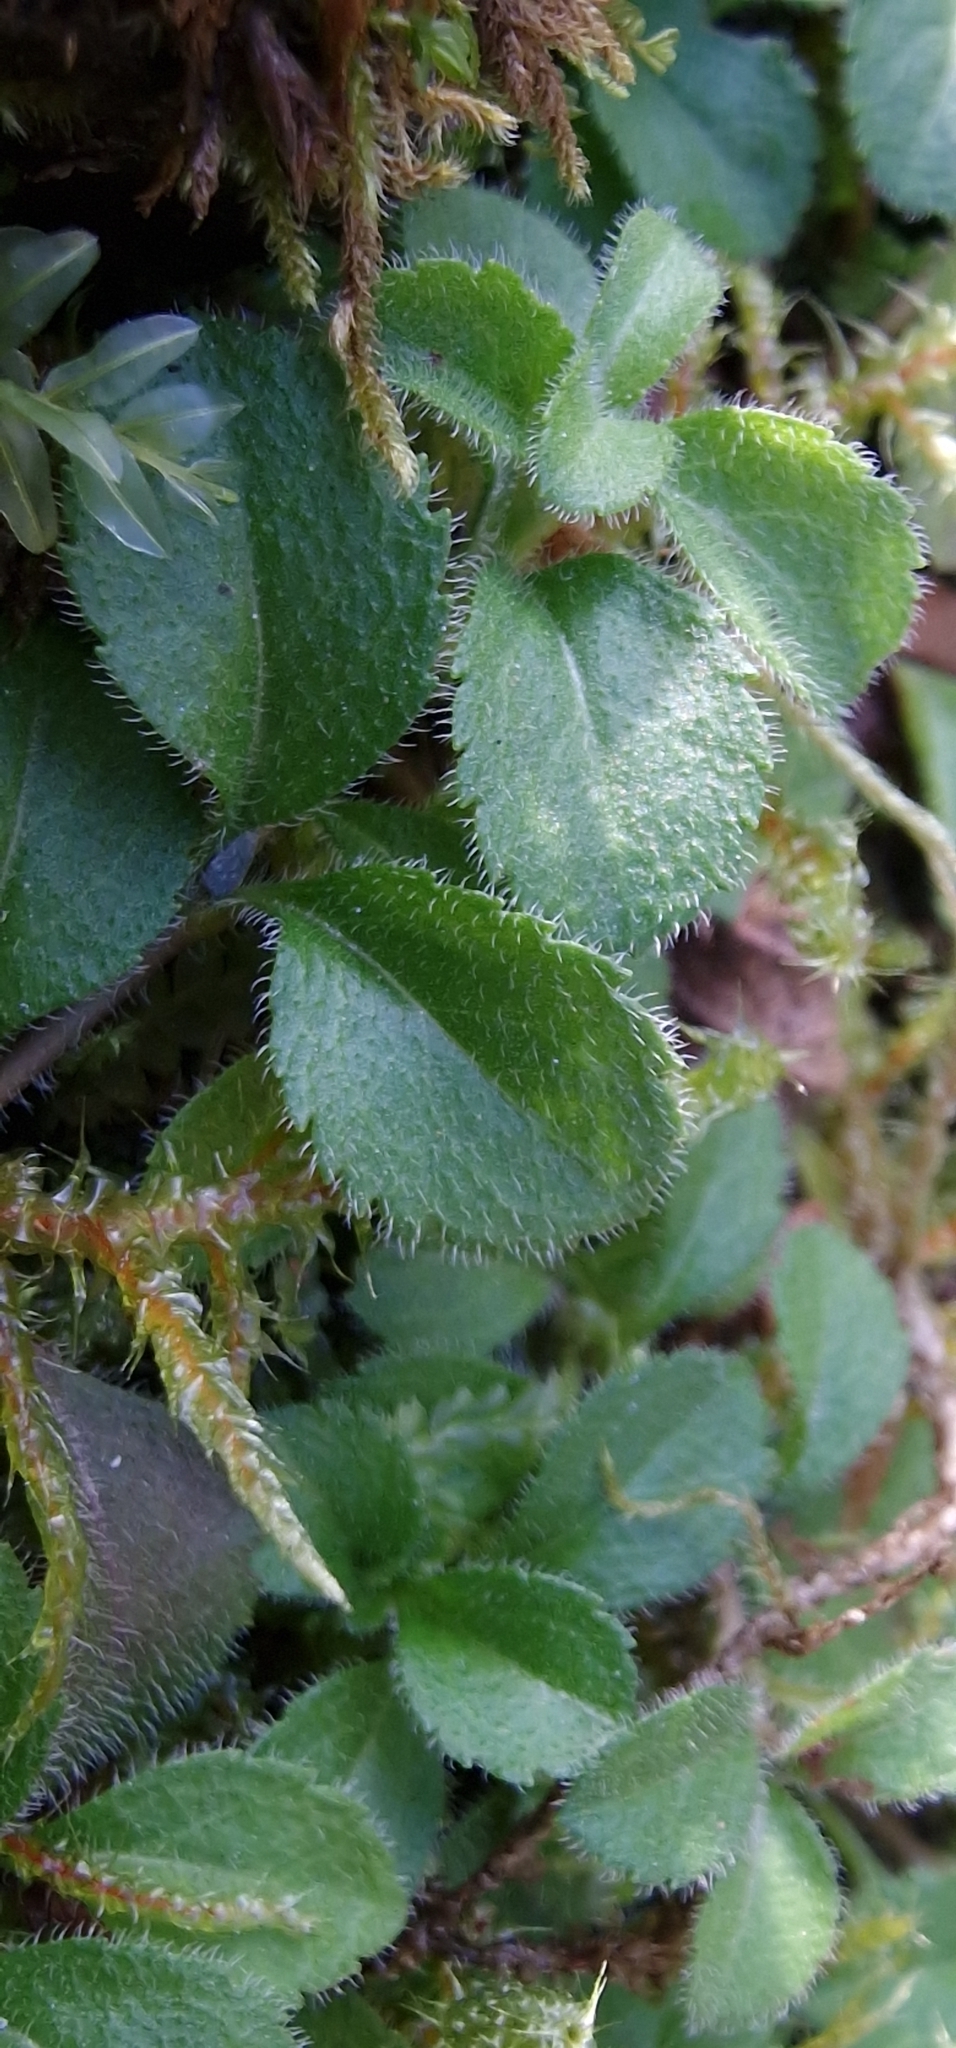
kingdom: Plantae
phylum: Tracheophyta
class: Magnoliopsida
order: Lamiales
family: Plantaginaceae
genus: Veronica
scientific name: Veronica officinalis
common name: Common speedwell
